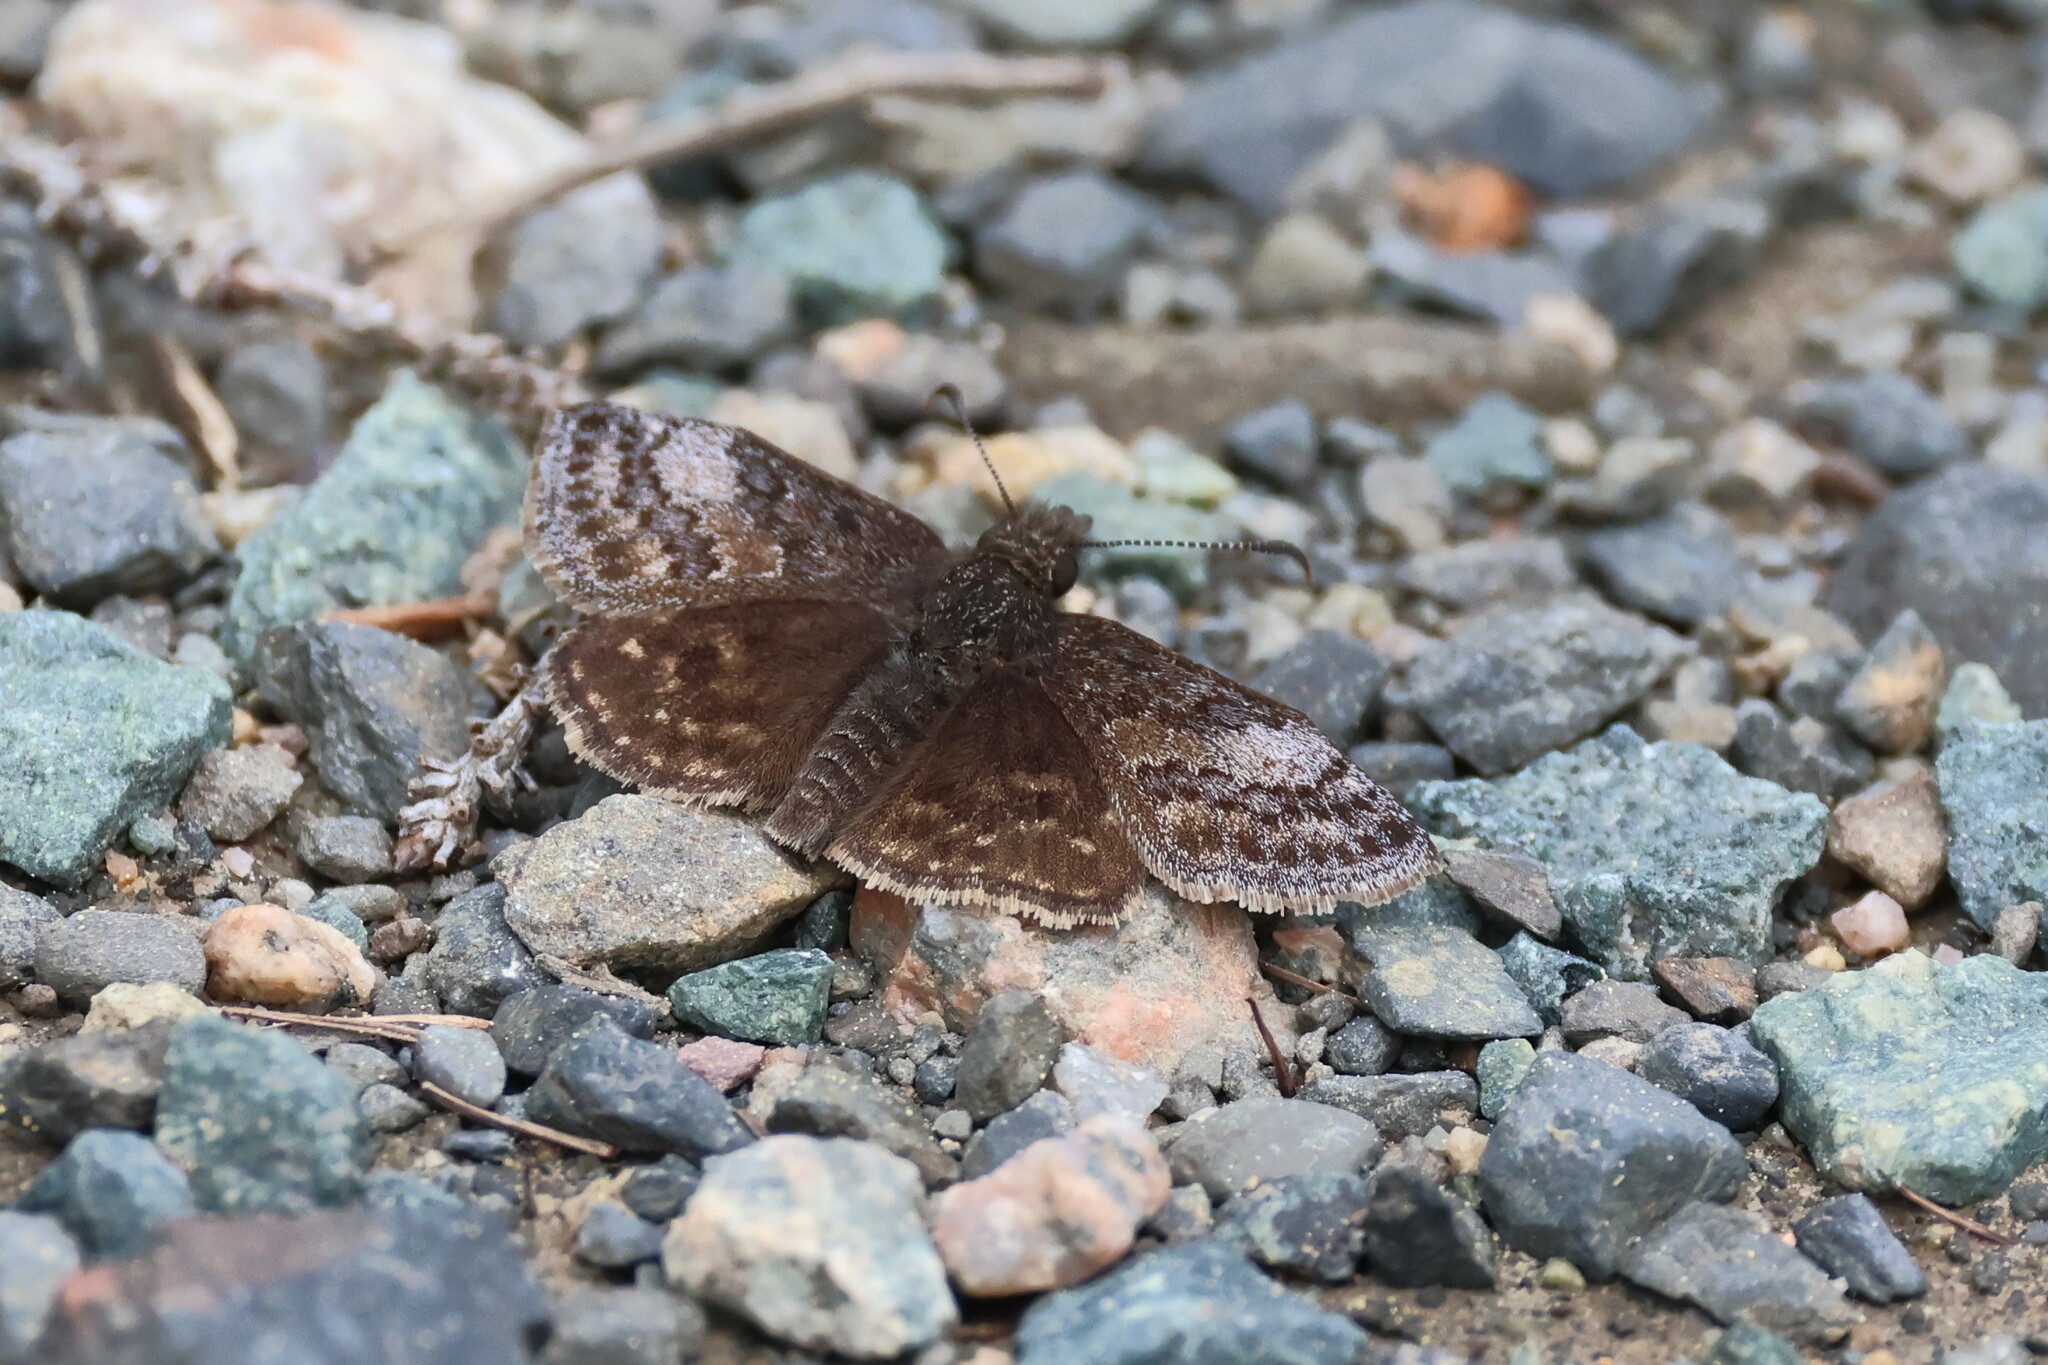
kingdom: Animalia
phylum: Arthropoda
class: Insecta
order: Lepidoptera
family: Hesperiidae
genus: Erynnis
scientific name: Erynnis icelus
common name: Dreamy duskywing
